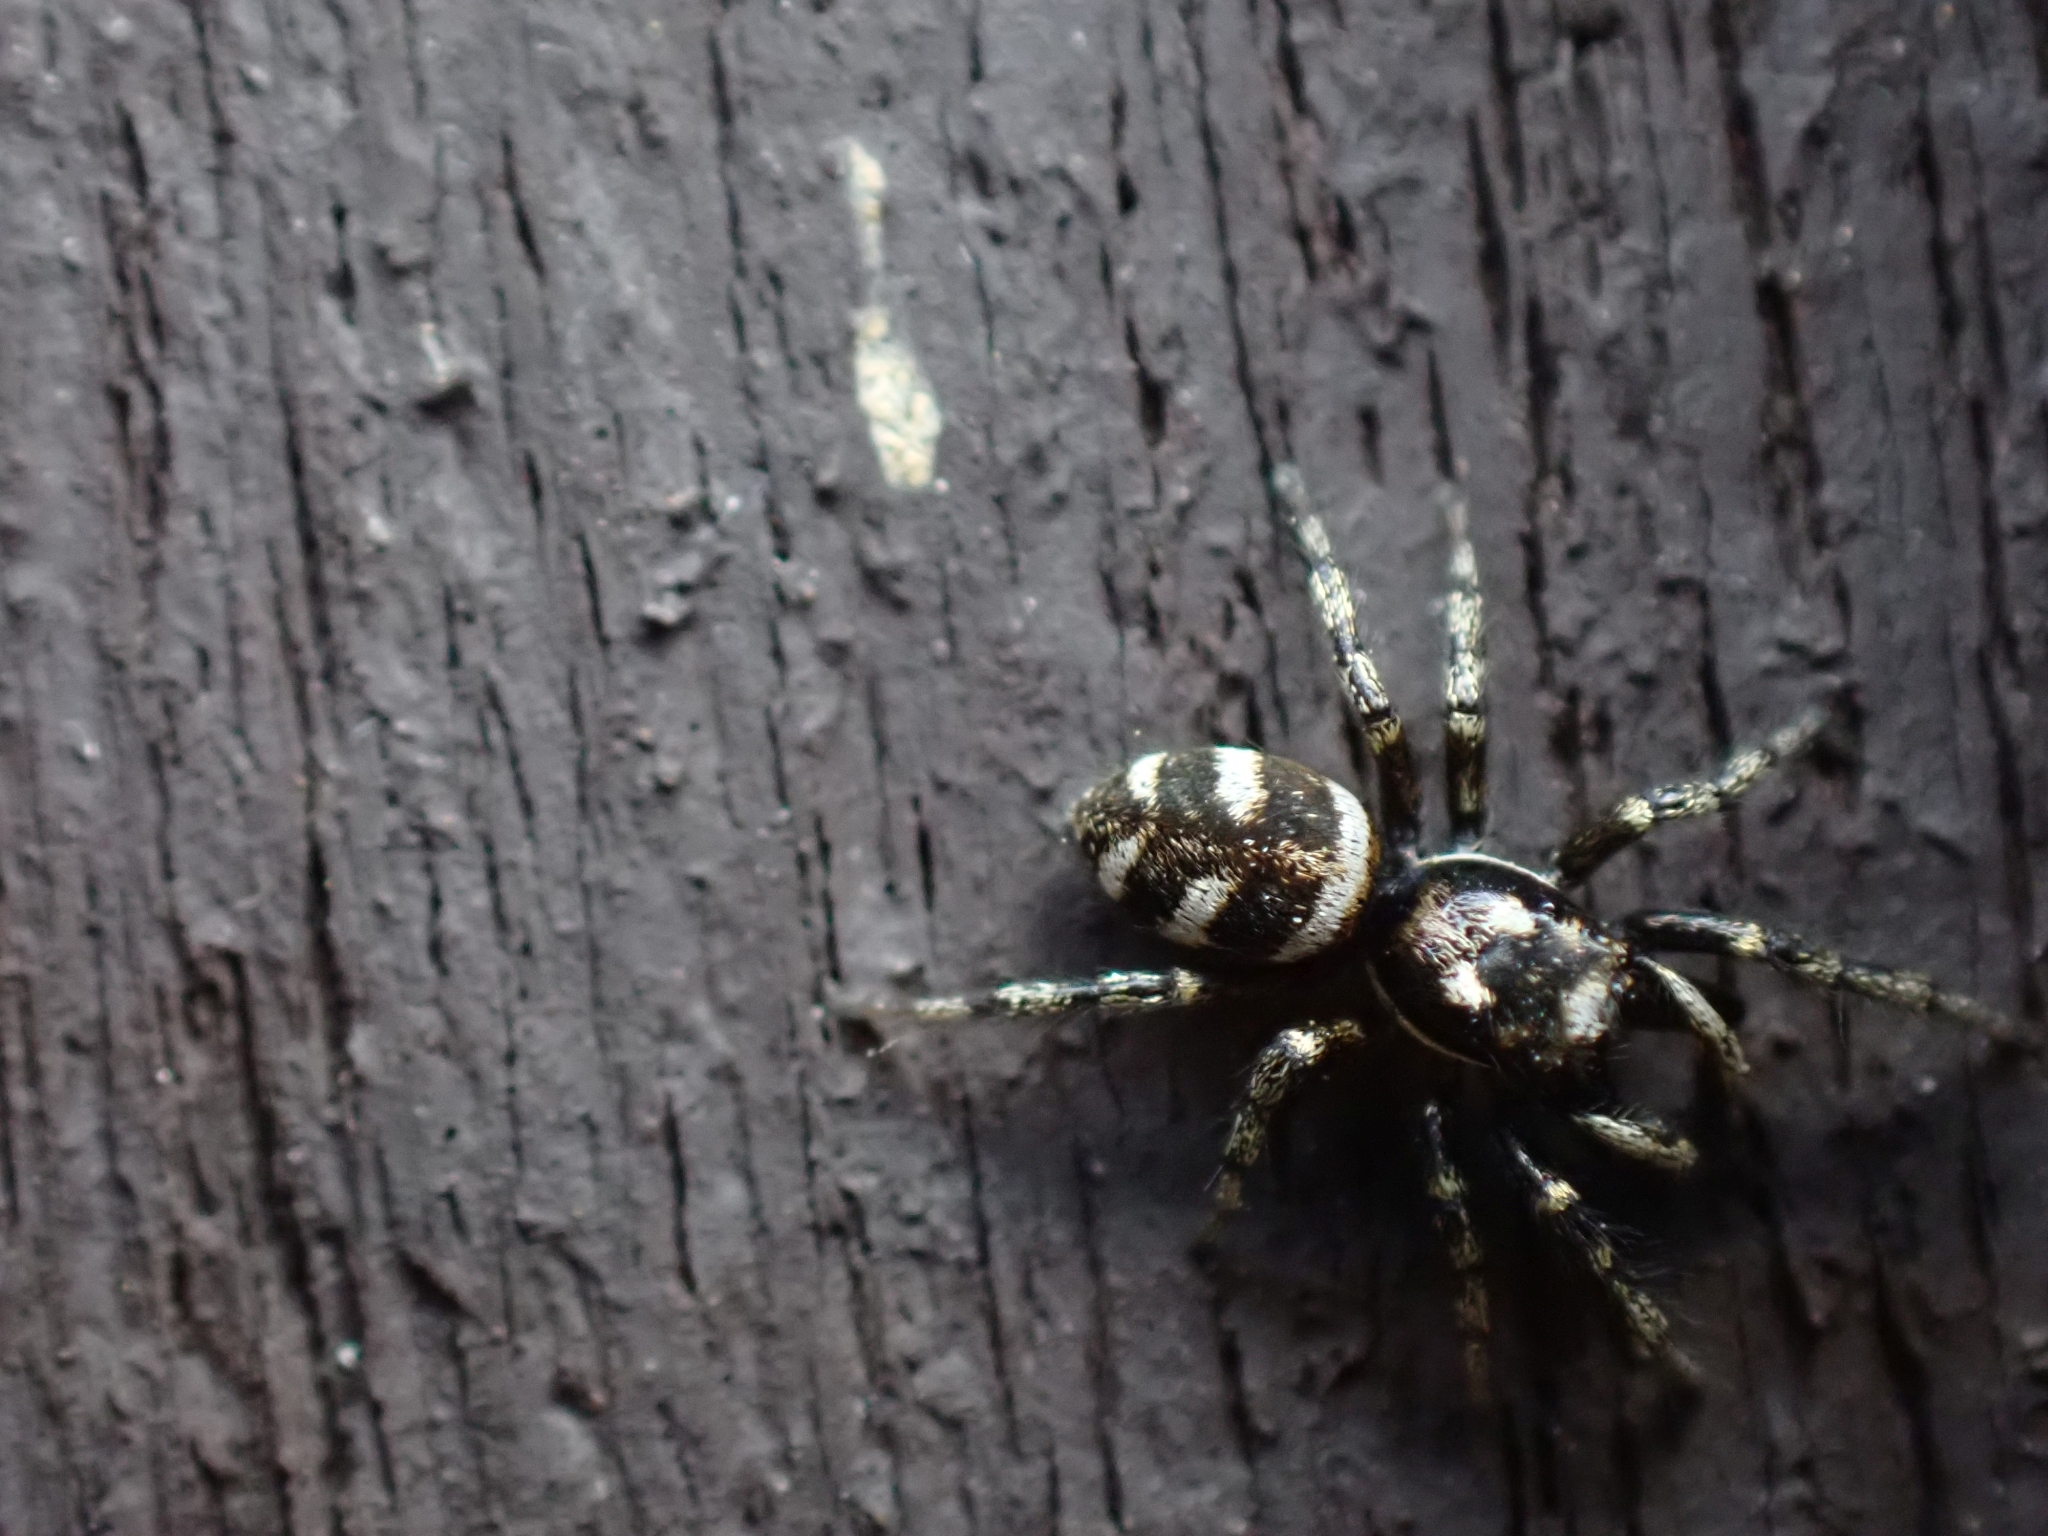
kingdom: Animalia
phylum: Arthropoda
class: Arachnida
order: Araneae
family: Salticidae
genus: Salticus
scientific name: Salticus scenicus
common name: Zebra jumper
